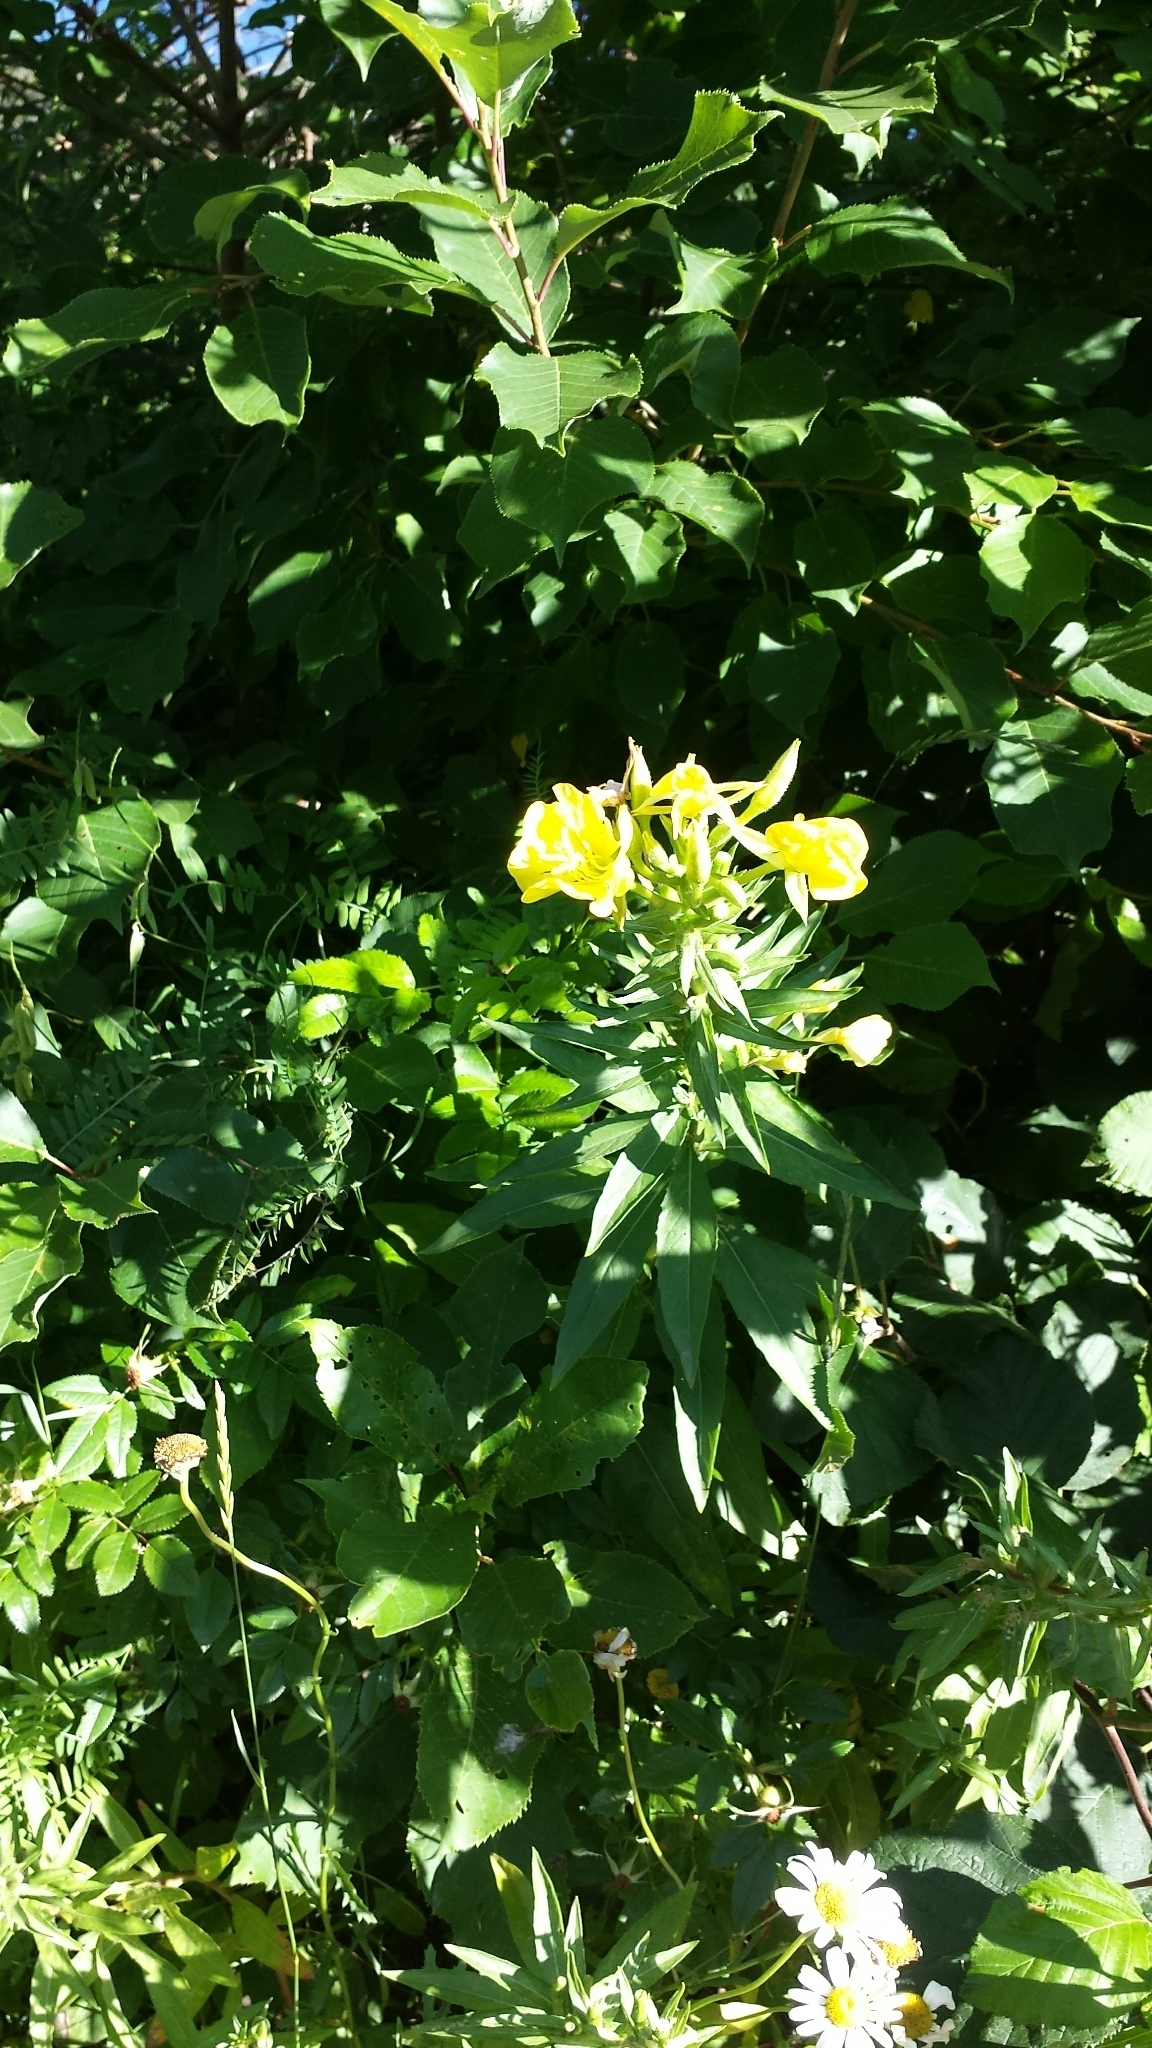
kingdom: Plantae
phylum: Tracheophyta
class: Magnoliopsida
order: Myrtales
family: Onagraceae
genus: Oenothera
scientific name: Oenothera biennis
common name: Common evening-primrose
